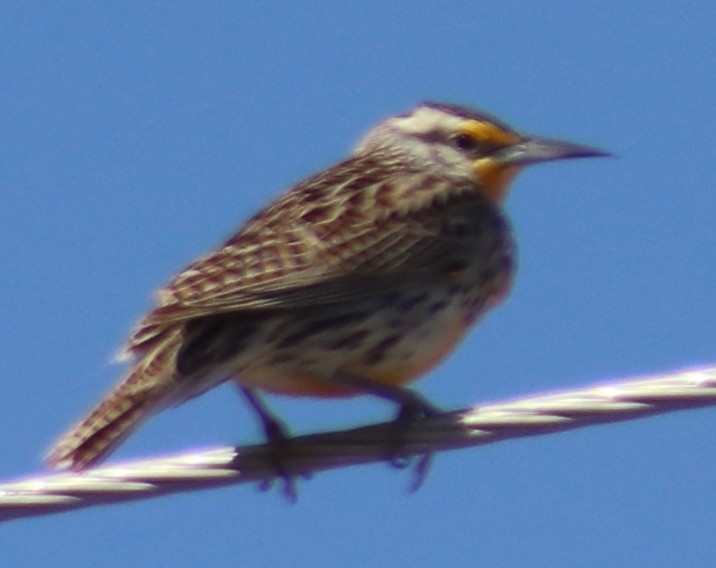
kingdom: Animalia
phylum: Chordata
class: Aves
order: Passeriformes
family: Icteridae
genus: Sturnella
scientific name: Sturnella neglecta
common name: Western meadowlark
